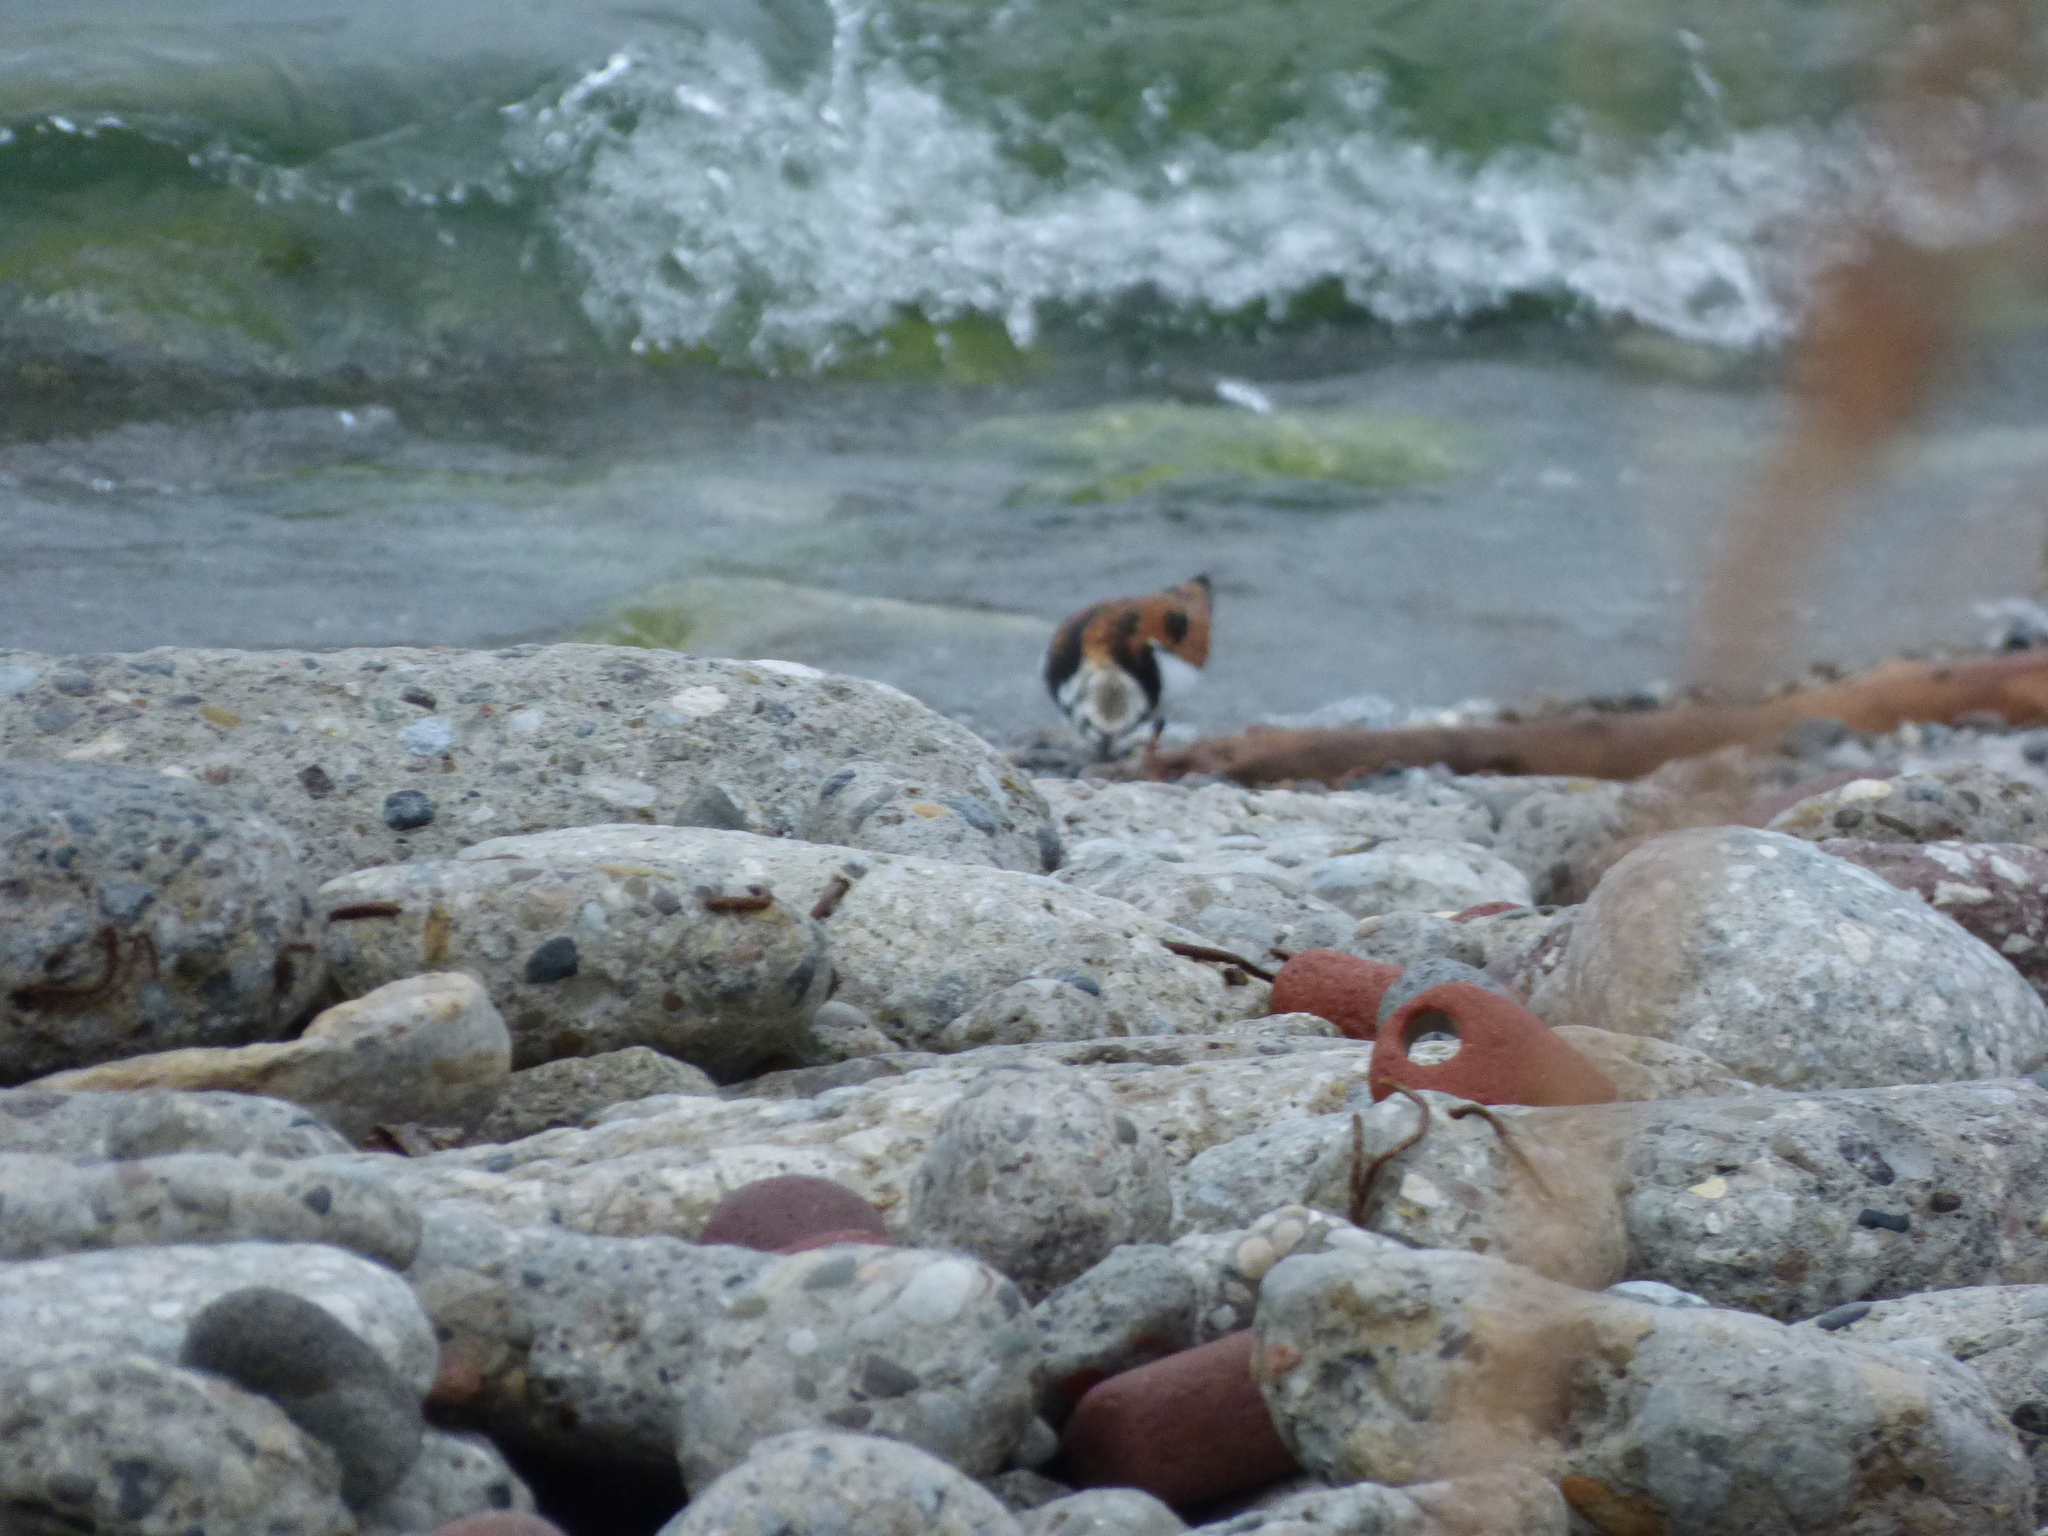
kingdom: Animalia
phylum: Chordata
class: Aves
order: Charadriiformes
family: Scolopacidae
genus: Arenaria
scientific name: Arenaria interpres
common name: Ruddy turnstone
